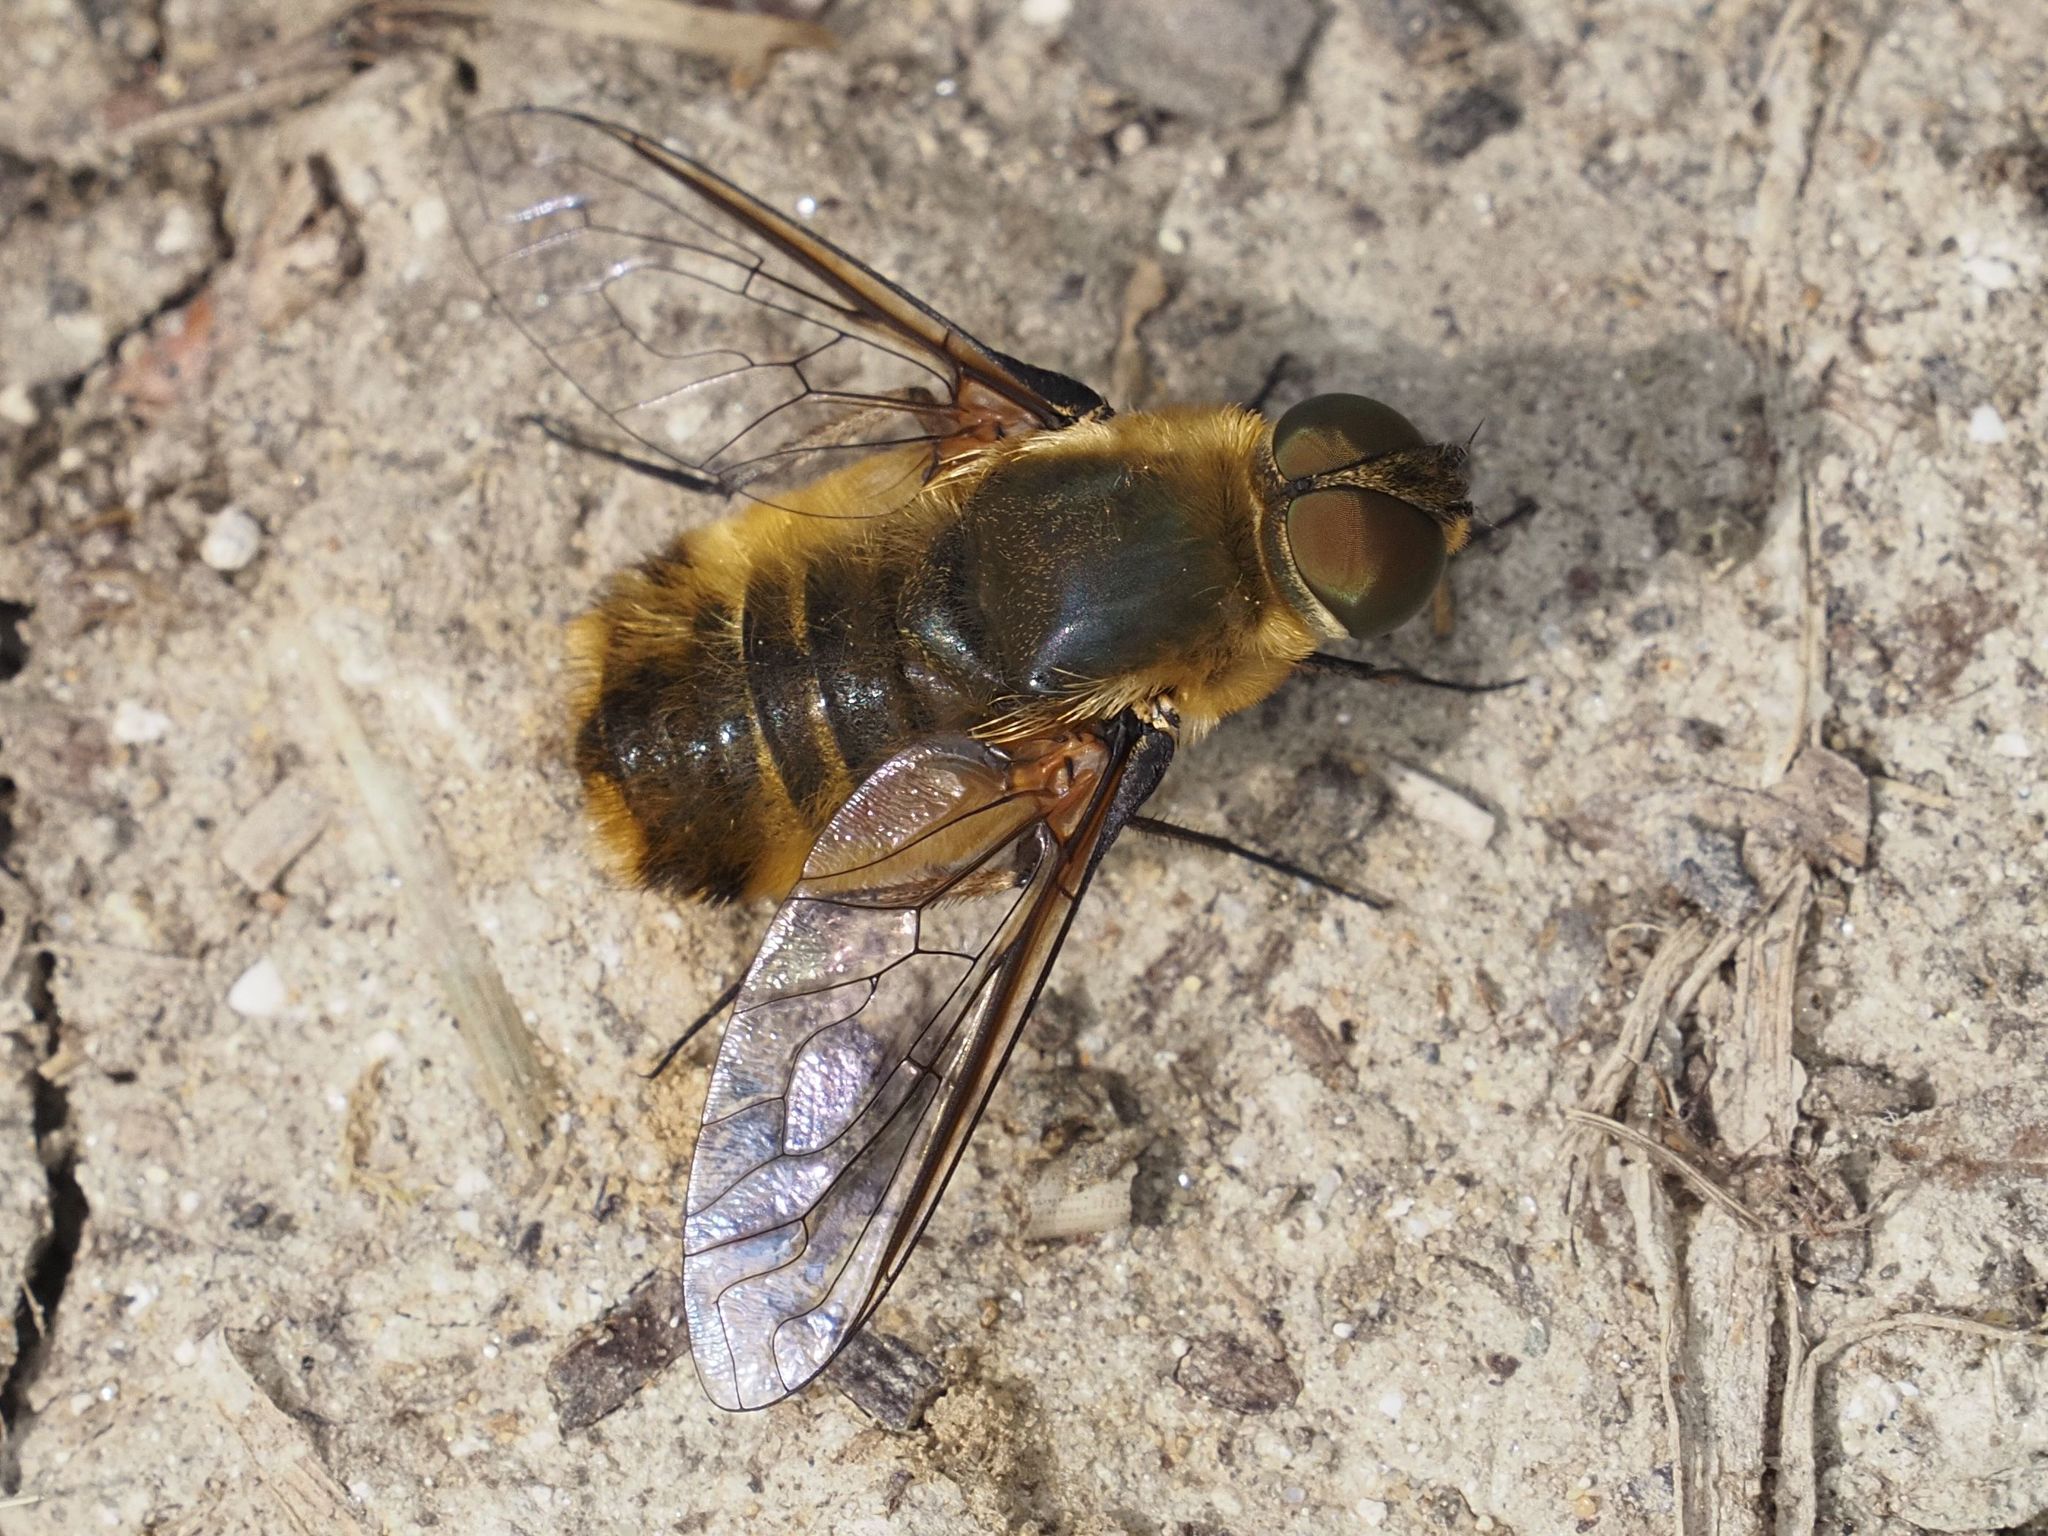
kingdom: Animalia
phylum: Arthropoda
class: Insecta
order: Diptera
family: Bombyliidae
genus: Villa
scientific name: Villa hottentotta
